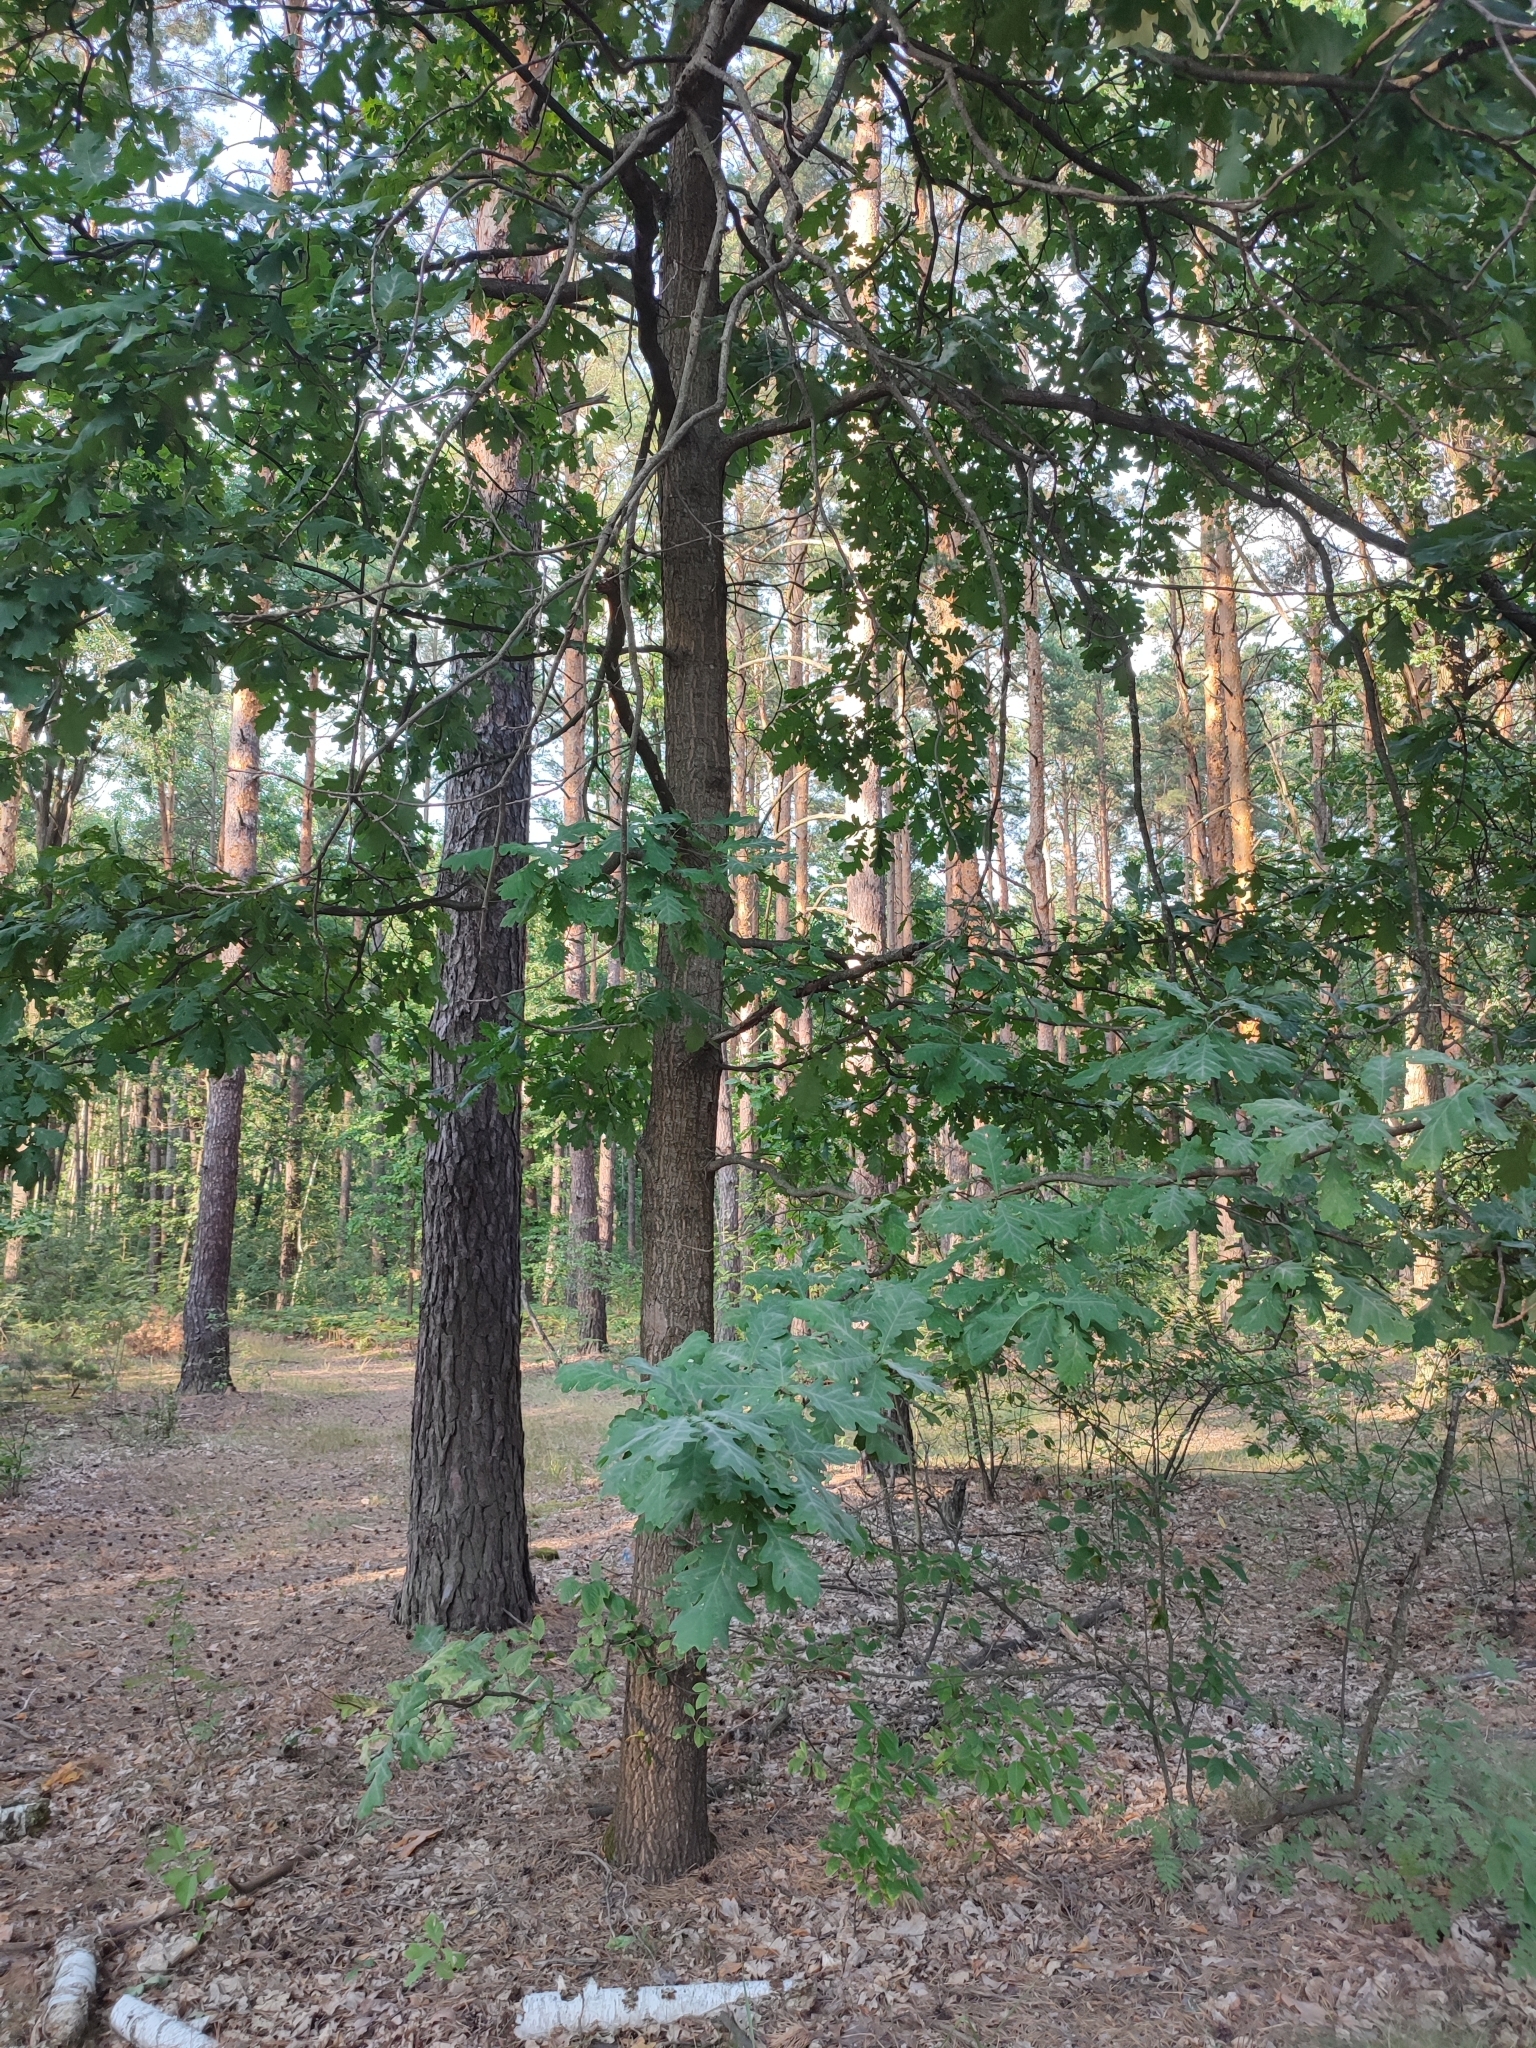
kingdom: Plantae
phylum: Tracheophyta
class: Magnoliopsida
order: Fagales
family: Fagaceae
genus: Quercus
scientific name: Quercus robur
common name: Pedunculate oak
